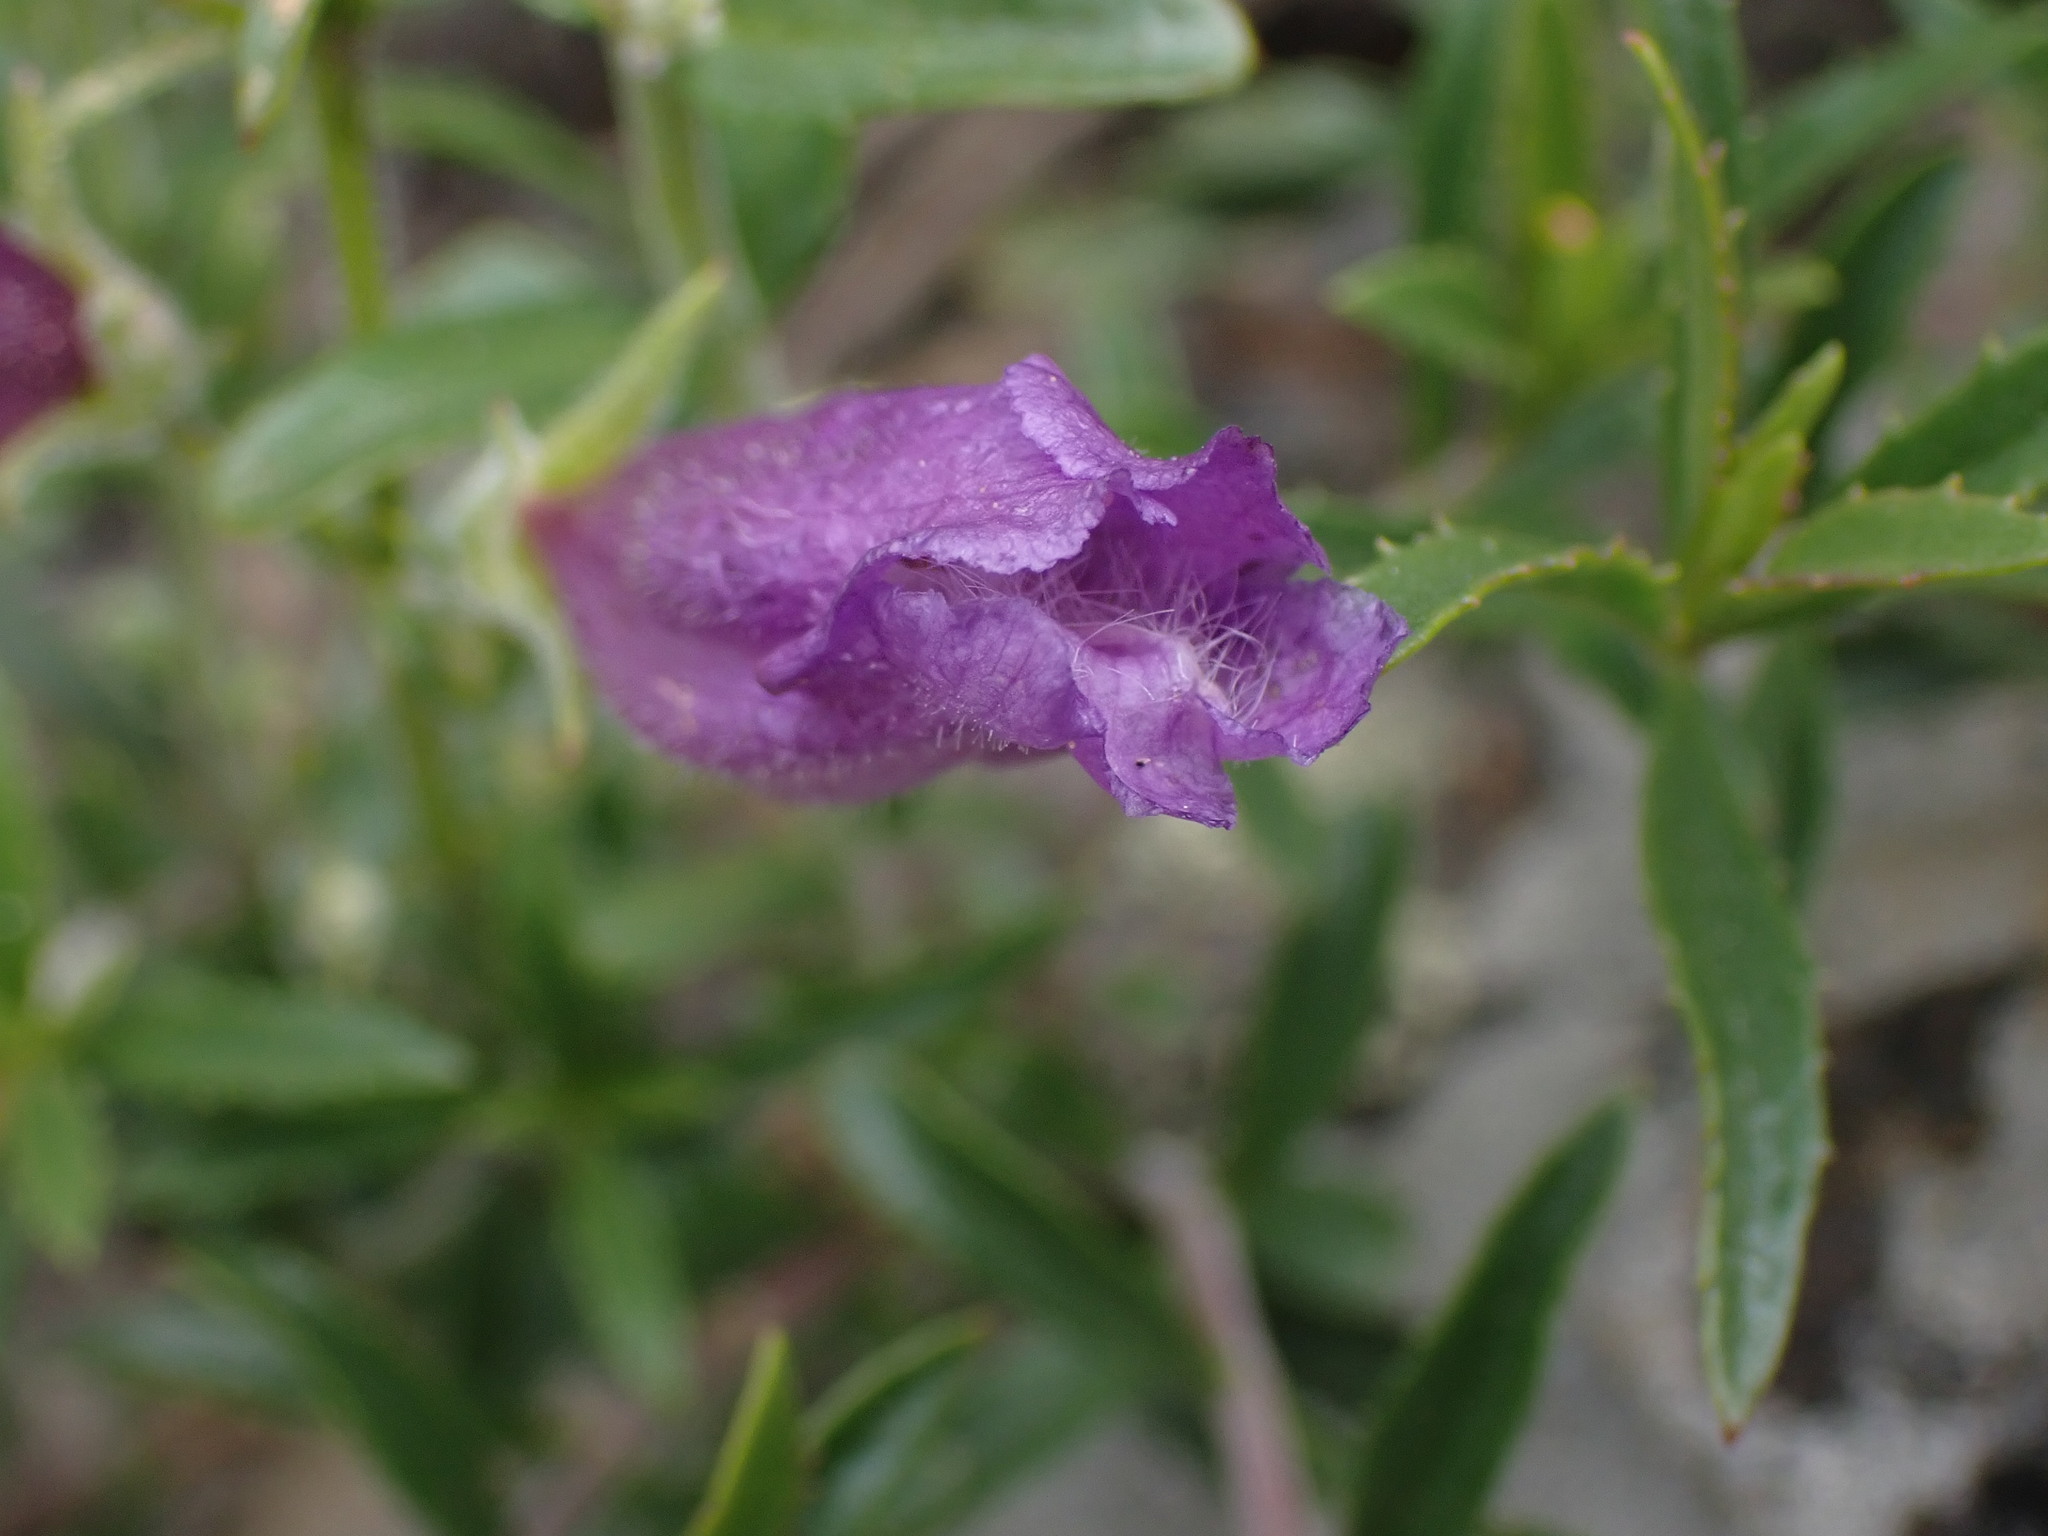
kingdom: Plantae
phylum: Tracheophyta
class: Magnoliopsida
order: Lamiales
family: Plantaginaceae
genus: Penstemon
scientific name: Penstemon fruticosus
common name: Bush penstemon
